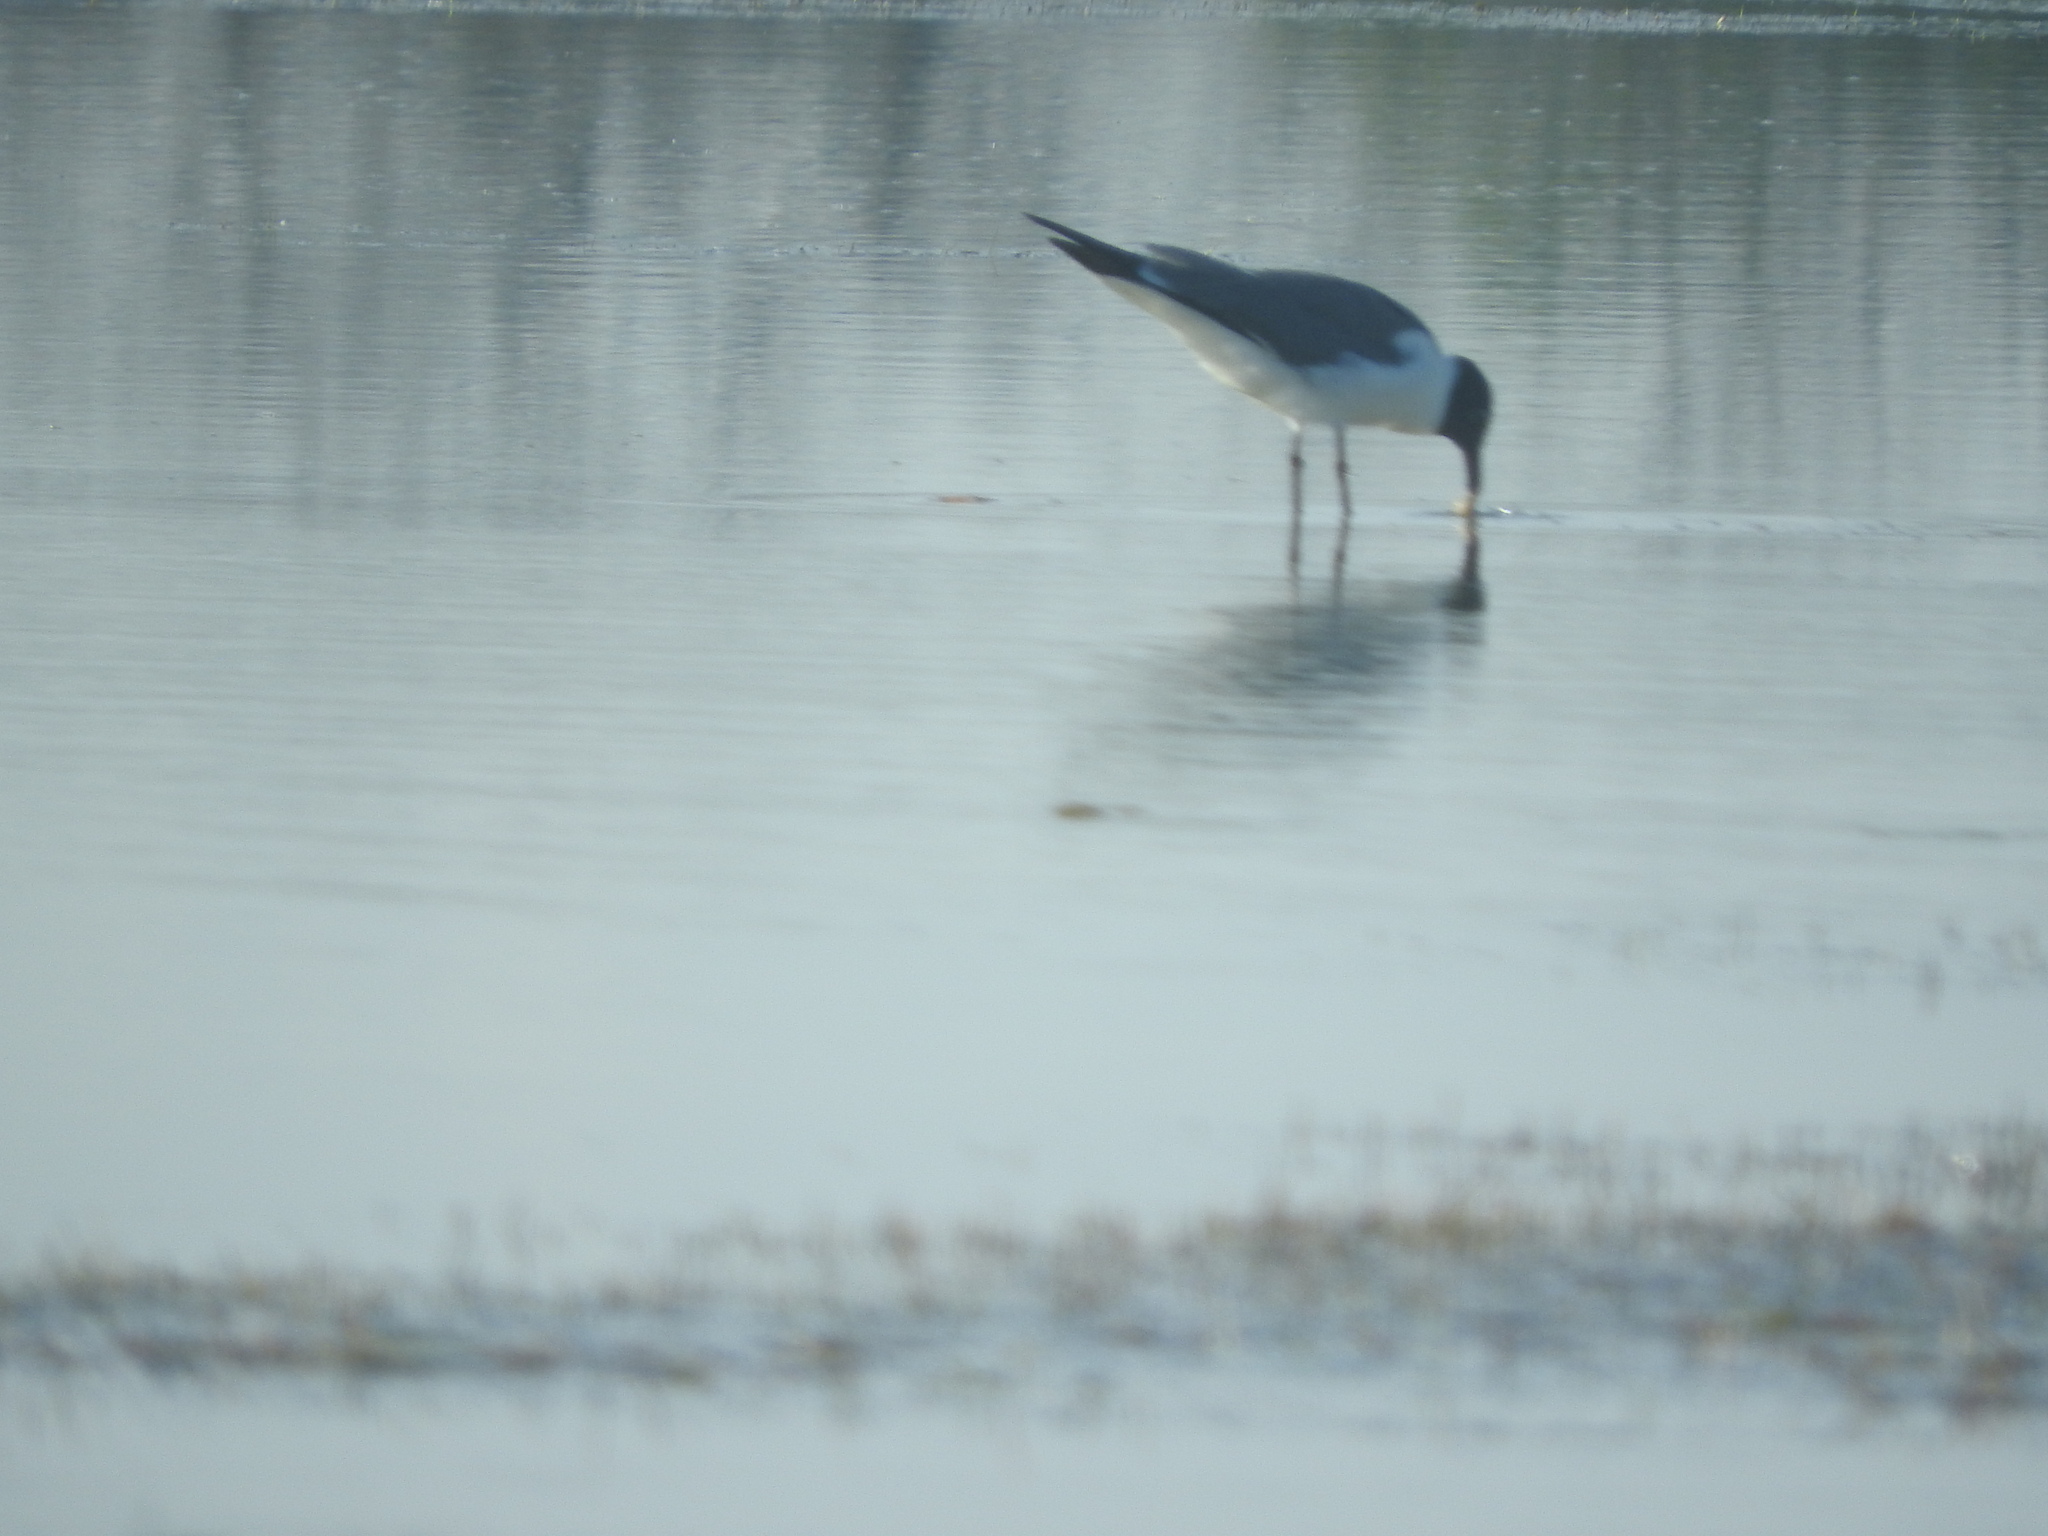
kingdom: Animalia
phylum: Chordata
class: Aves
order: Charadriiformes
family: Laridae
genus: Leucophaeus
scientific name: Leucophaeus atricilla
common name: Laughing gull
